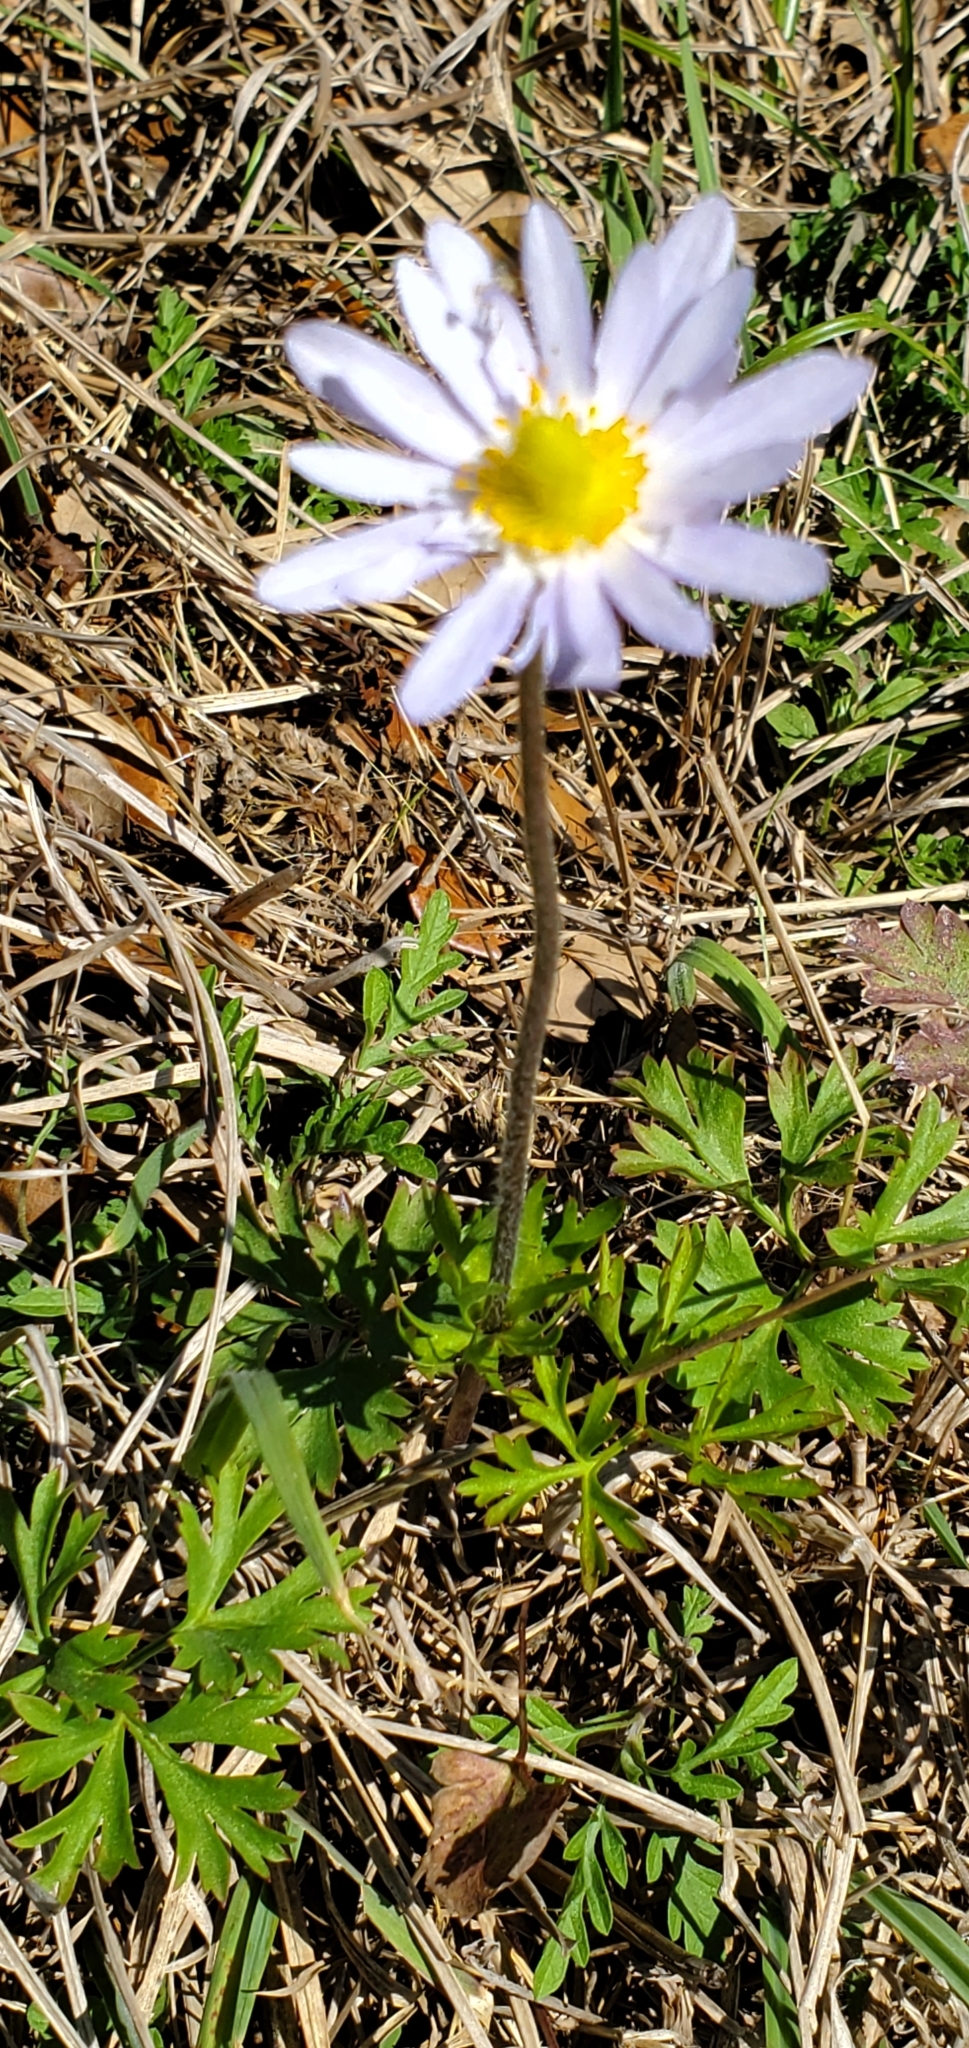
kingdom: Plantae
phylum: Tracheophyta
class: Magnoliopsida
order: Ranunculales
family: Ranunculaceae
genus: Anemone
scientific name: Anemone caroliniana
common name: Carolina anemone
